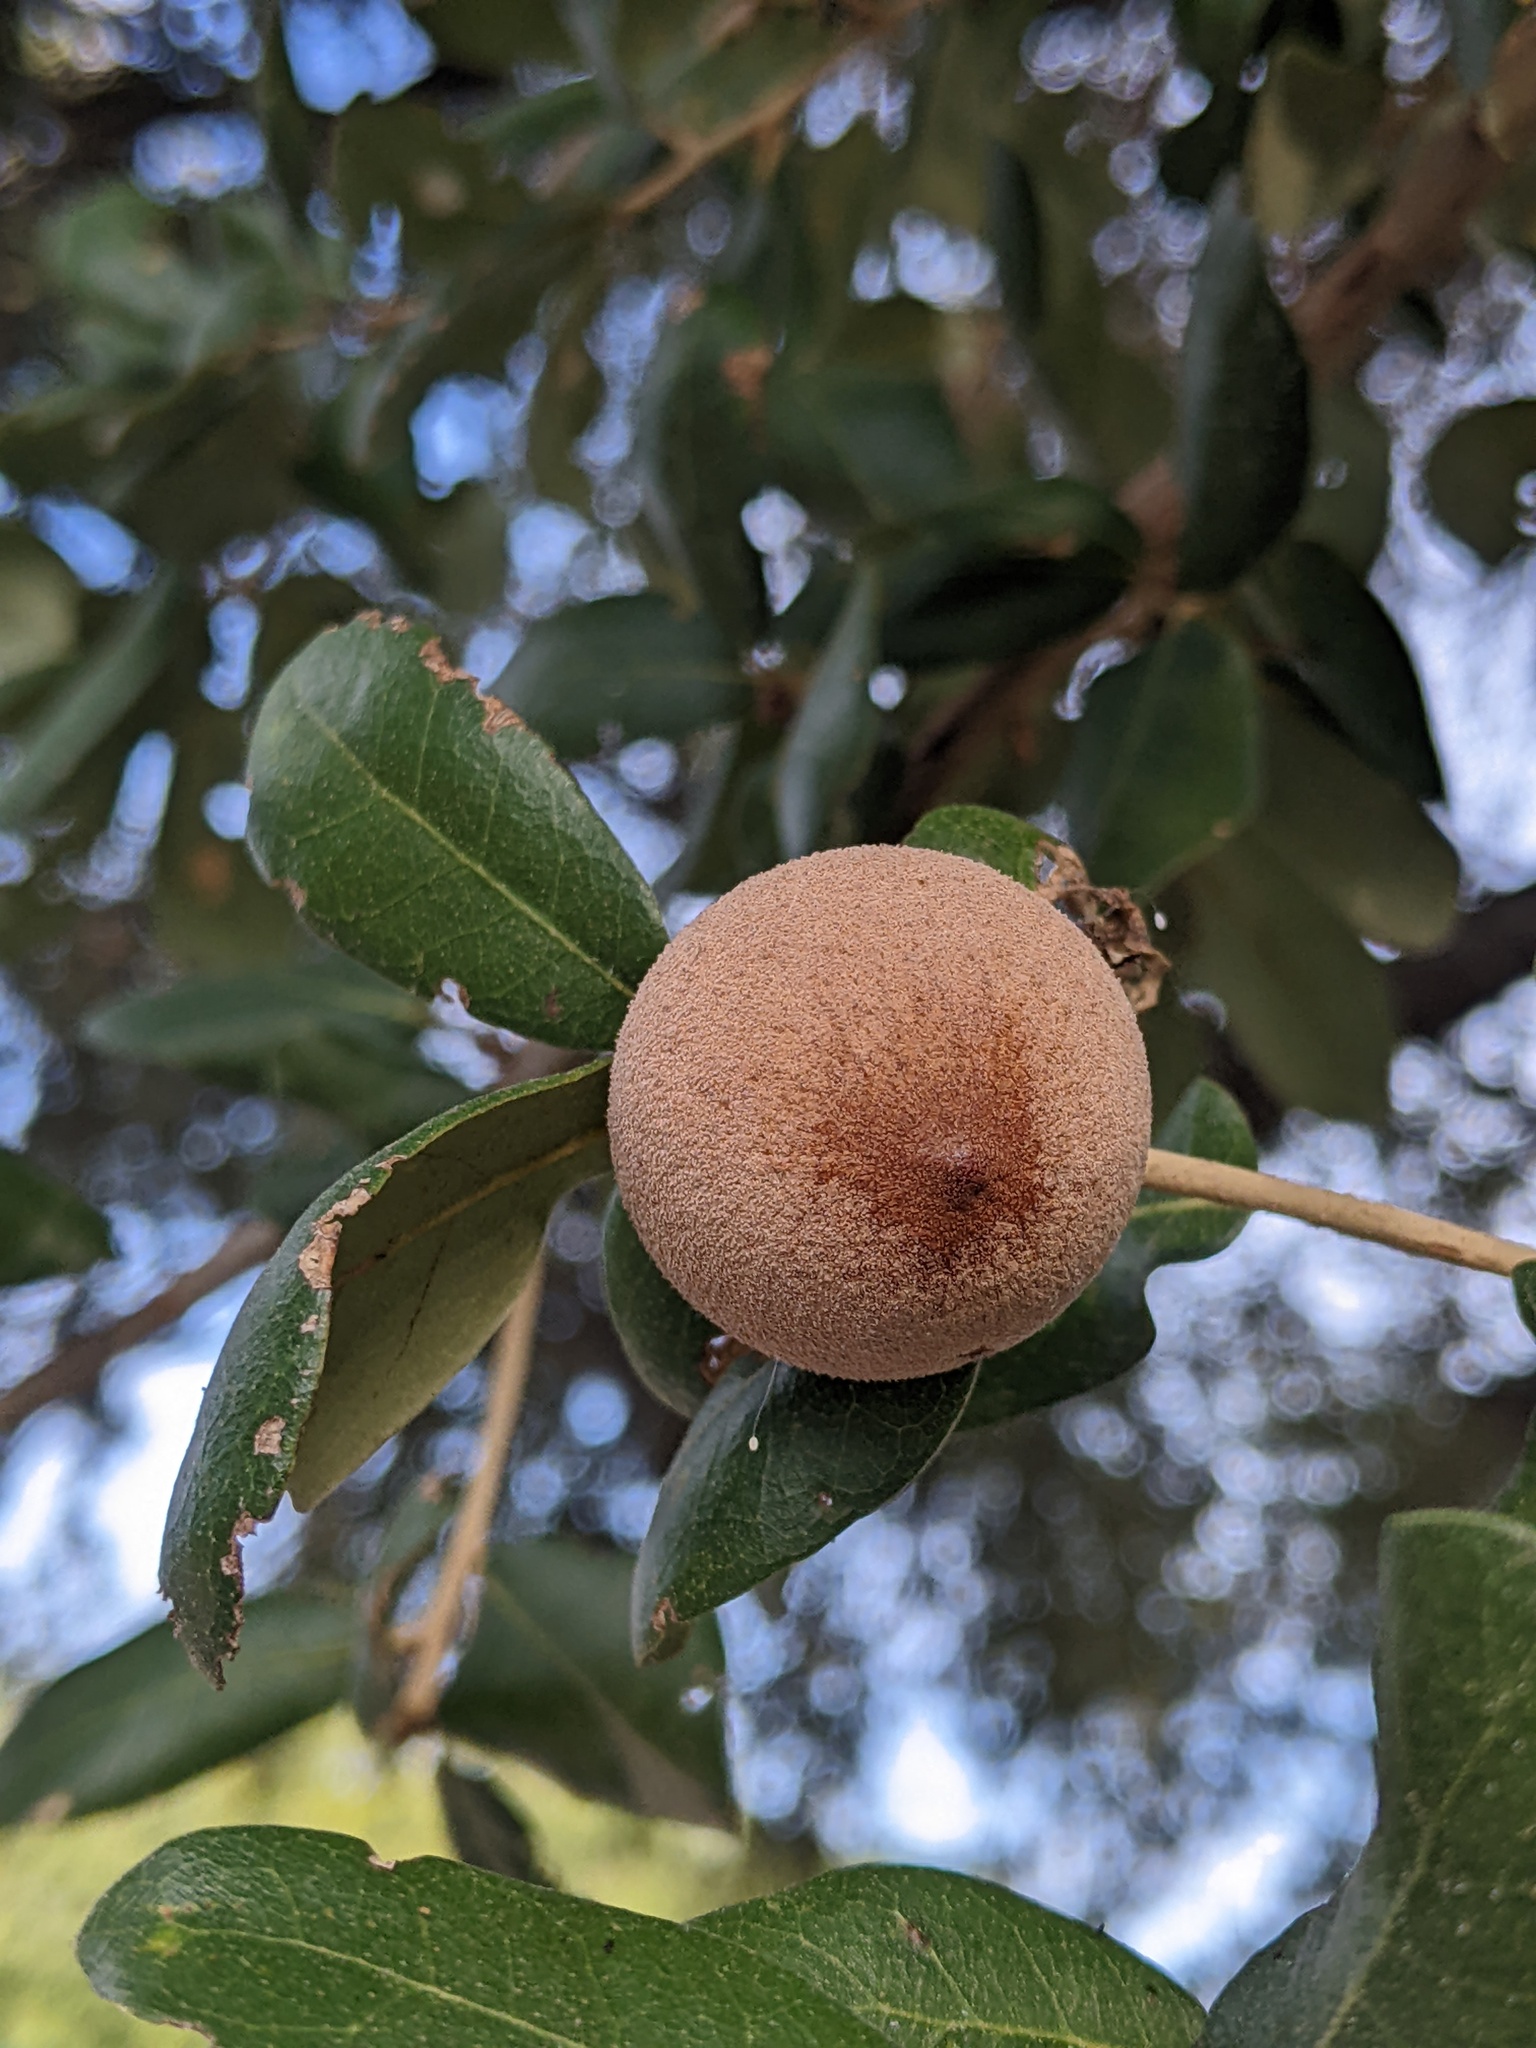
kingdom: Animalia
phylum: Arthropoda
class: Insecta
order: Hymenoptera
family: Cynipidae
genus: Disholcaspis
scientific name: Disholcaspis
